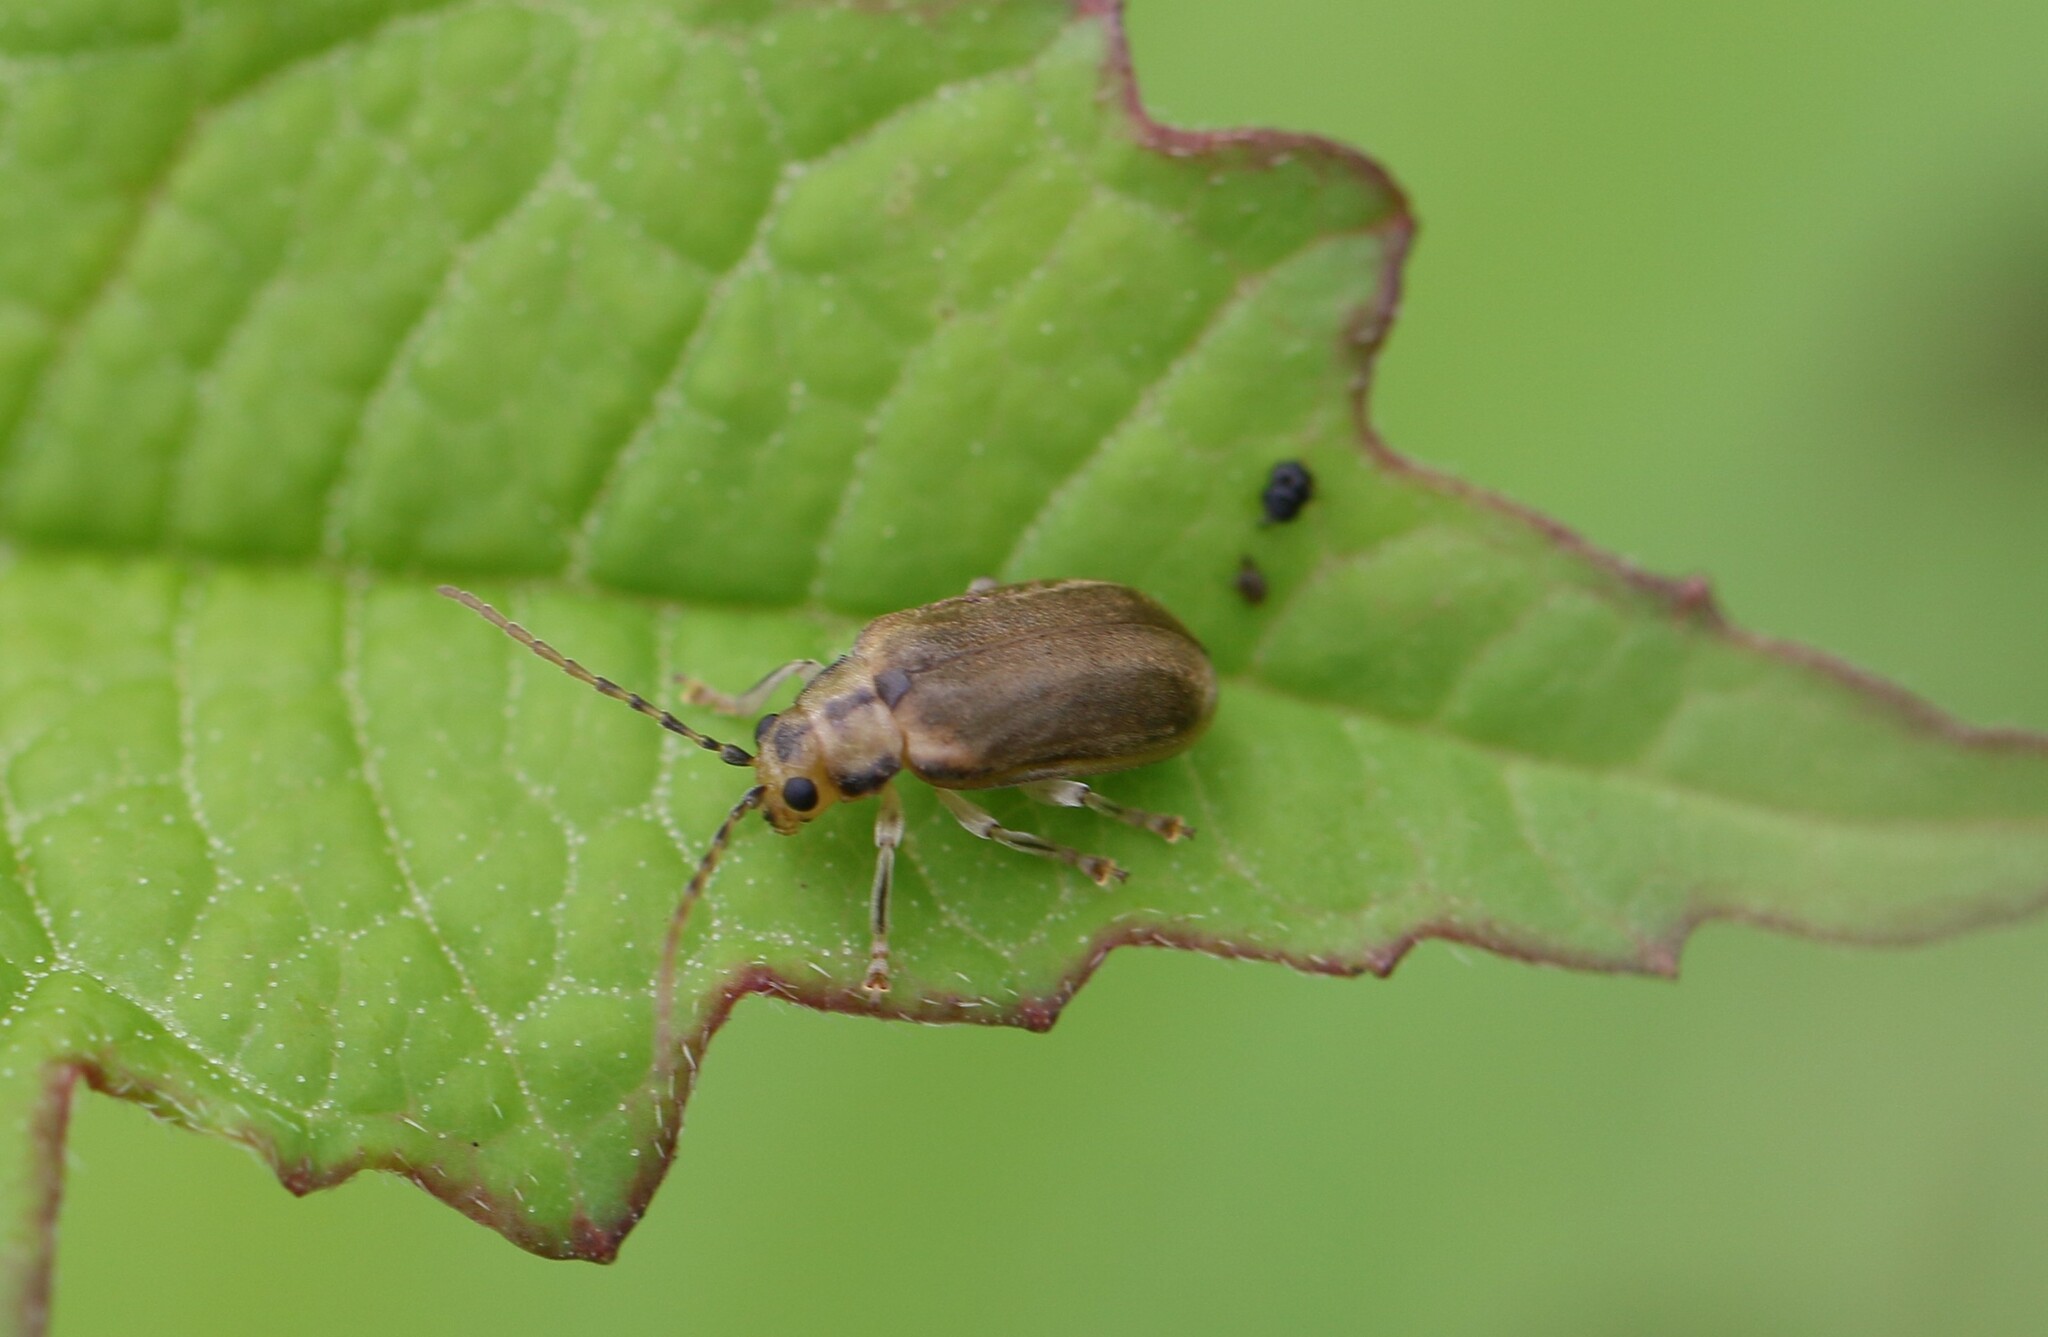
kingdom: Animalia
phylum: Arthropoda
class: Insecta
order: Coleoptera
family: Chrysomelidae
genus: Pyrrhalta
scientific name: Pyrrhalta viburni
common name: Guelder-rose leaf beetle
